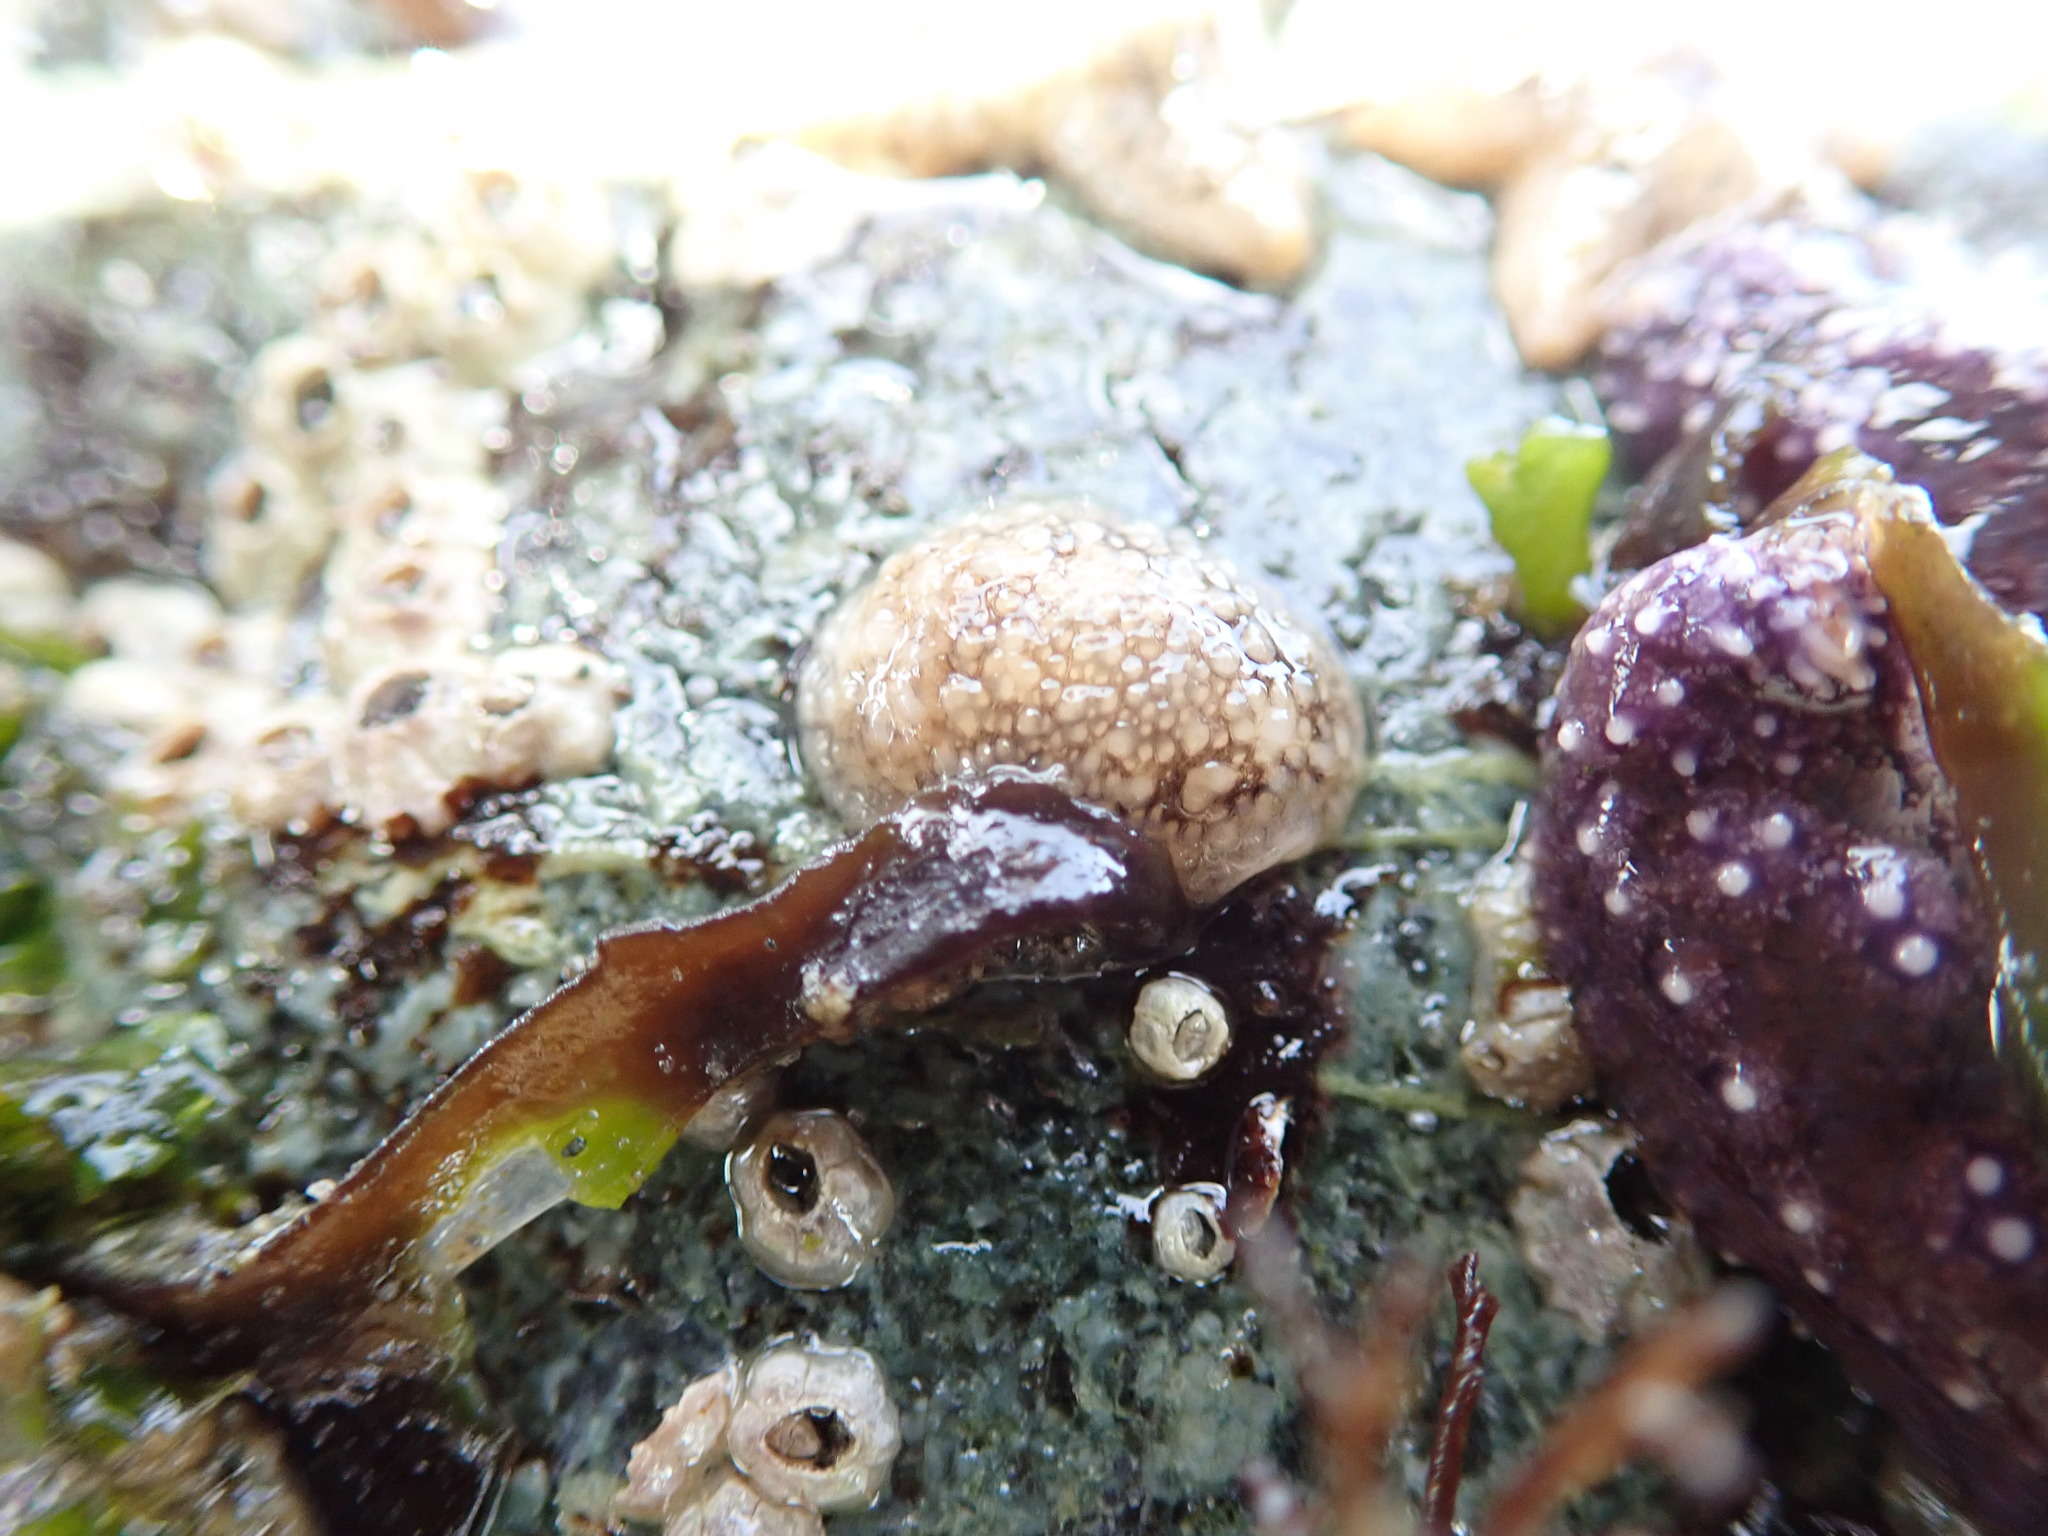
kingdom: Animalia
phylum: Mollusca
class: Gastropoda
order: Nudibranchia
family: Onchidorididae
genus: Onchidoris
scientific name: Onchidoris bilamellata
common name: Barnacle-eating onchidoris
